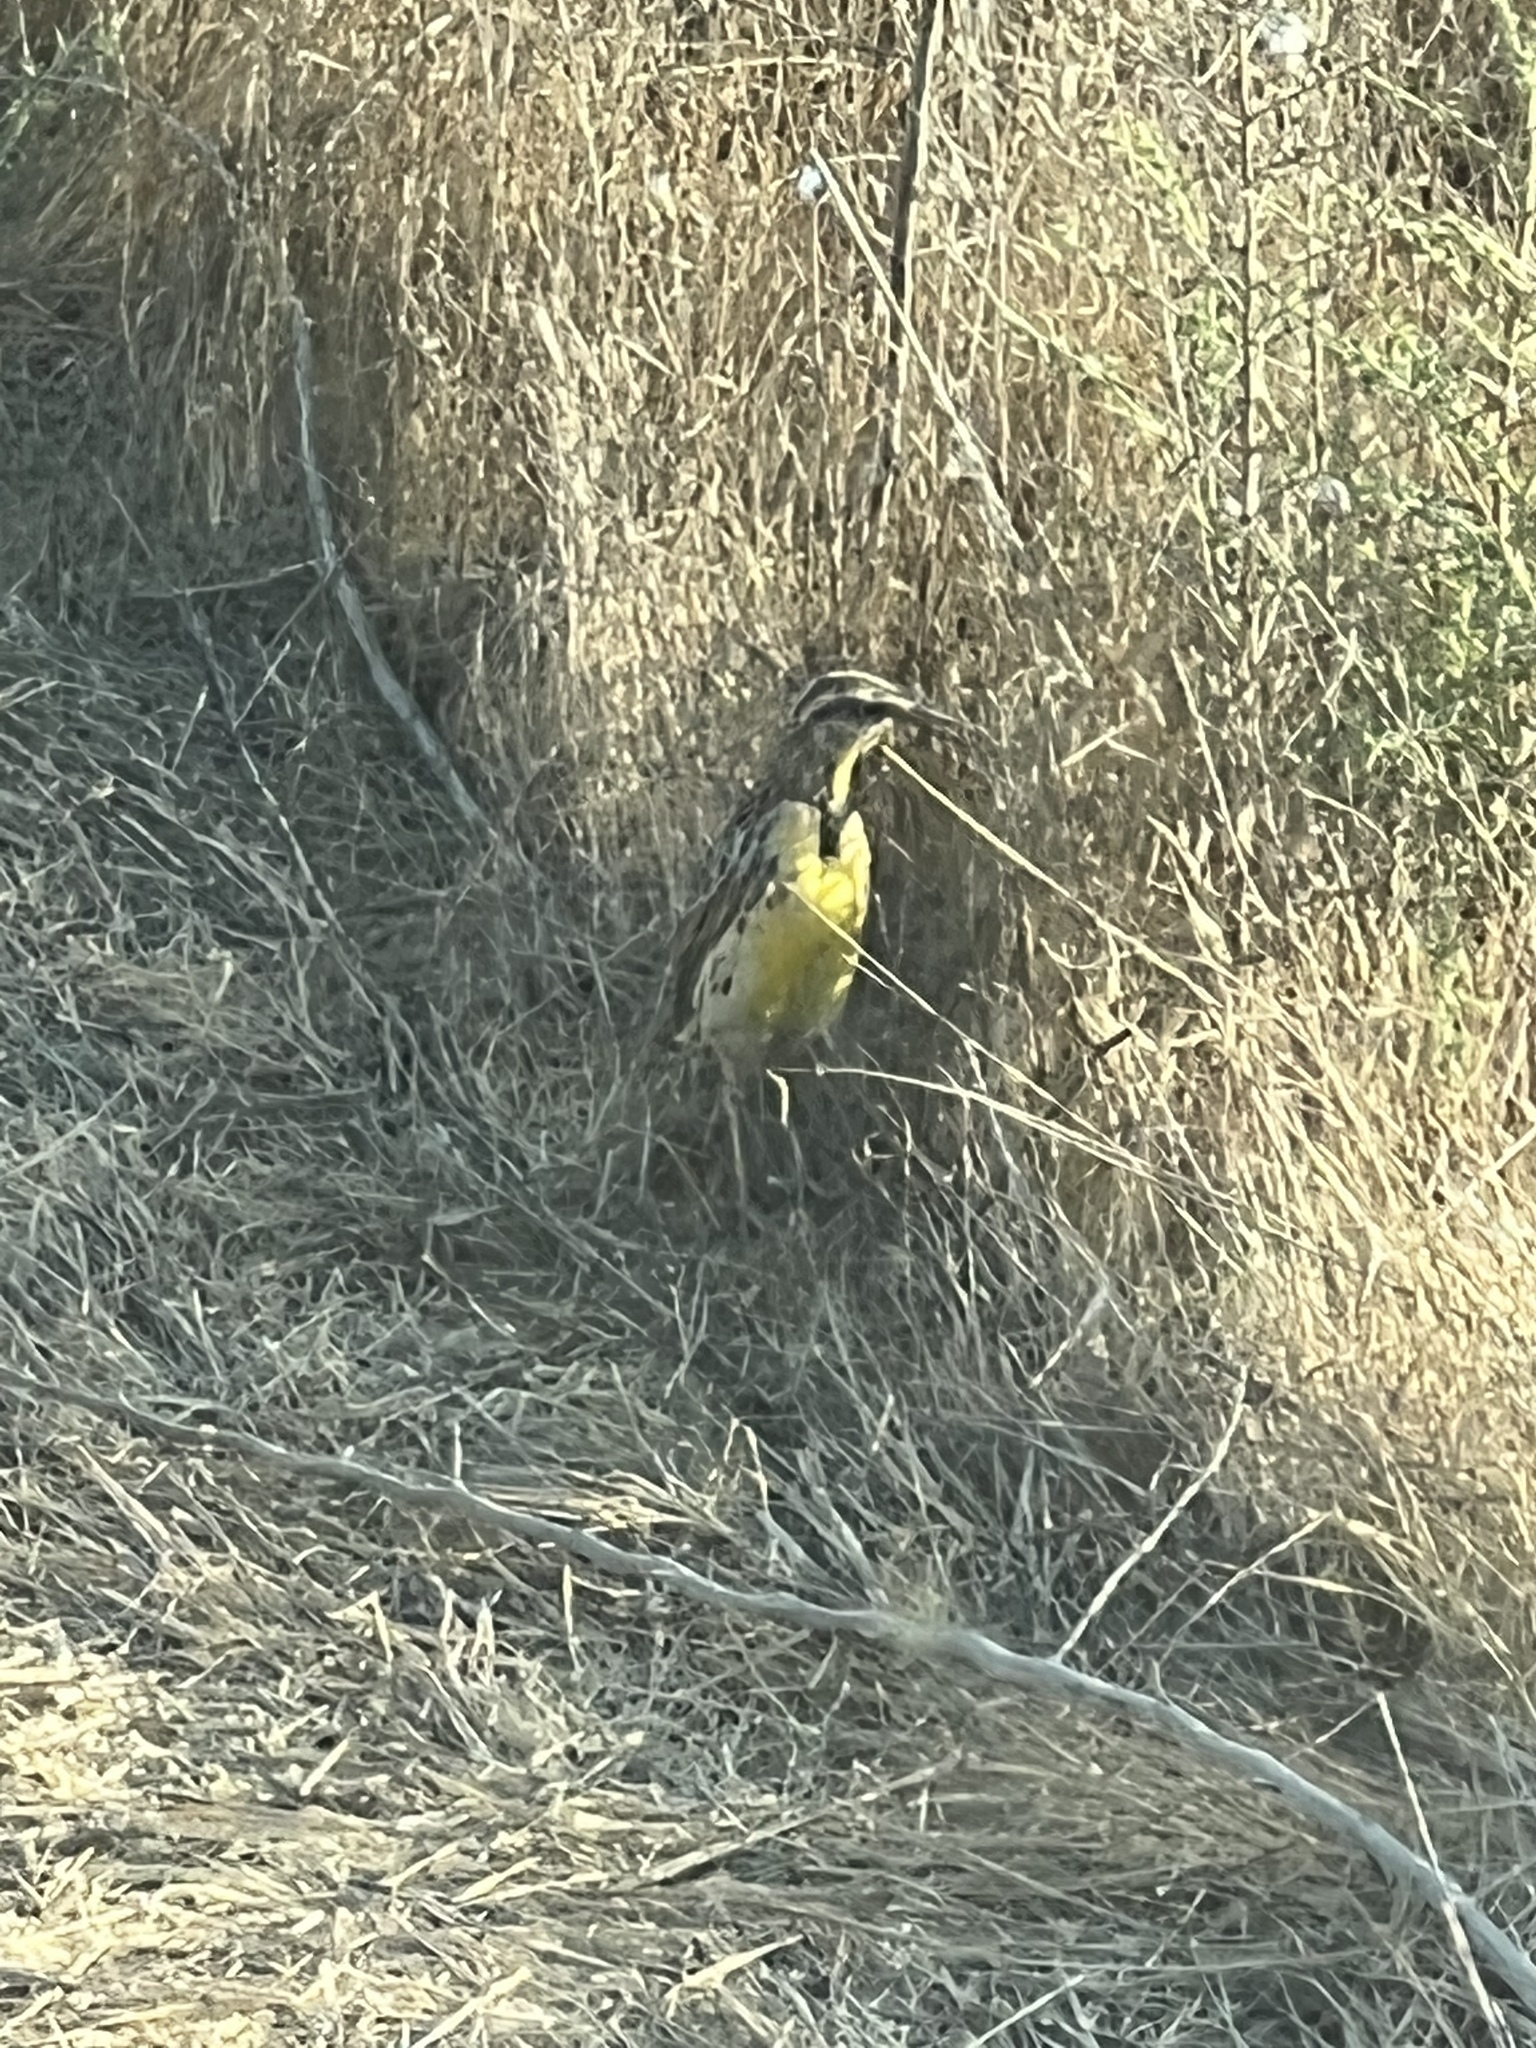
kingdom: Animalia
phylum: Chordata
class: Aves
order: Passeriformes
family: Icteridae
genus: Sturnella
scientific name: Sturnella neglecta
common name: Western meadowlark
